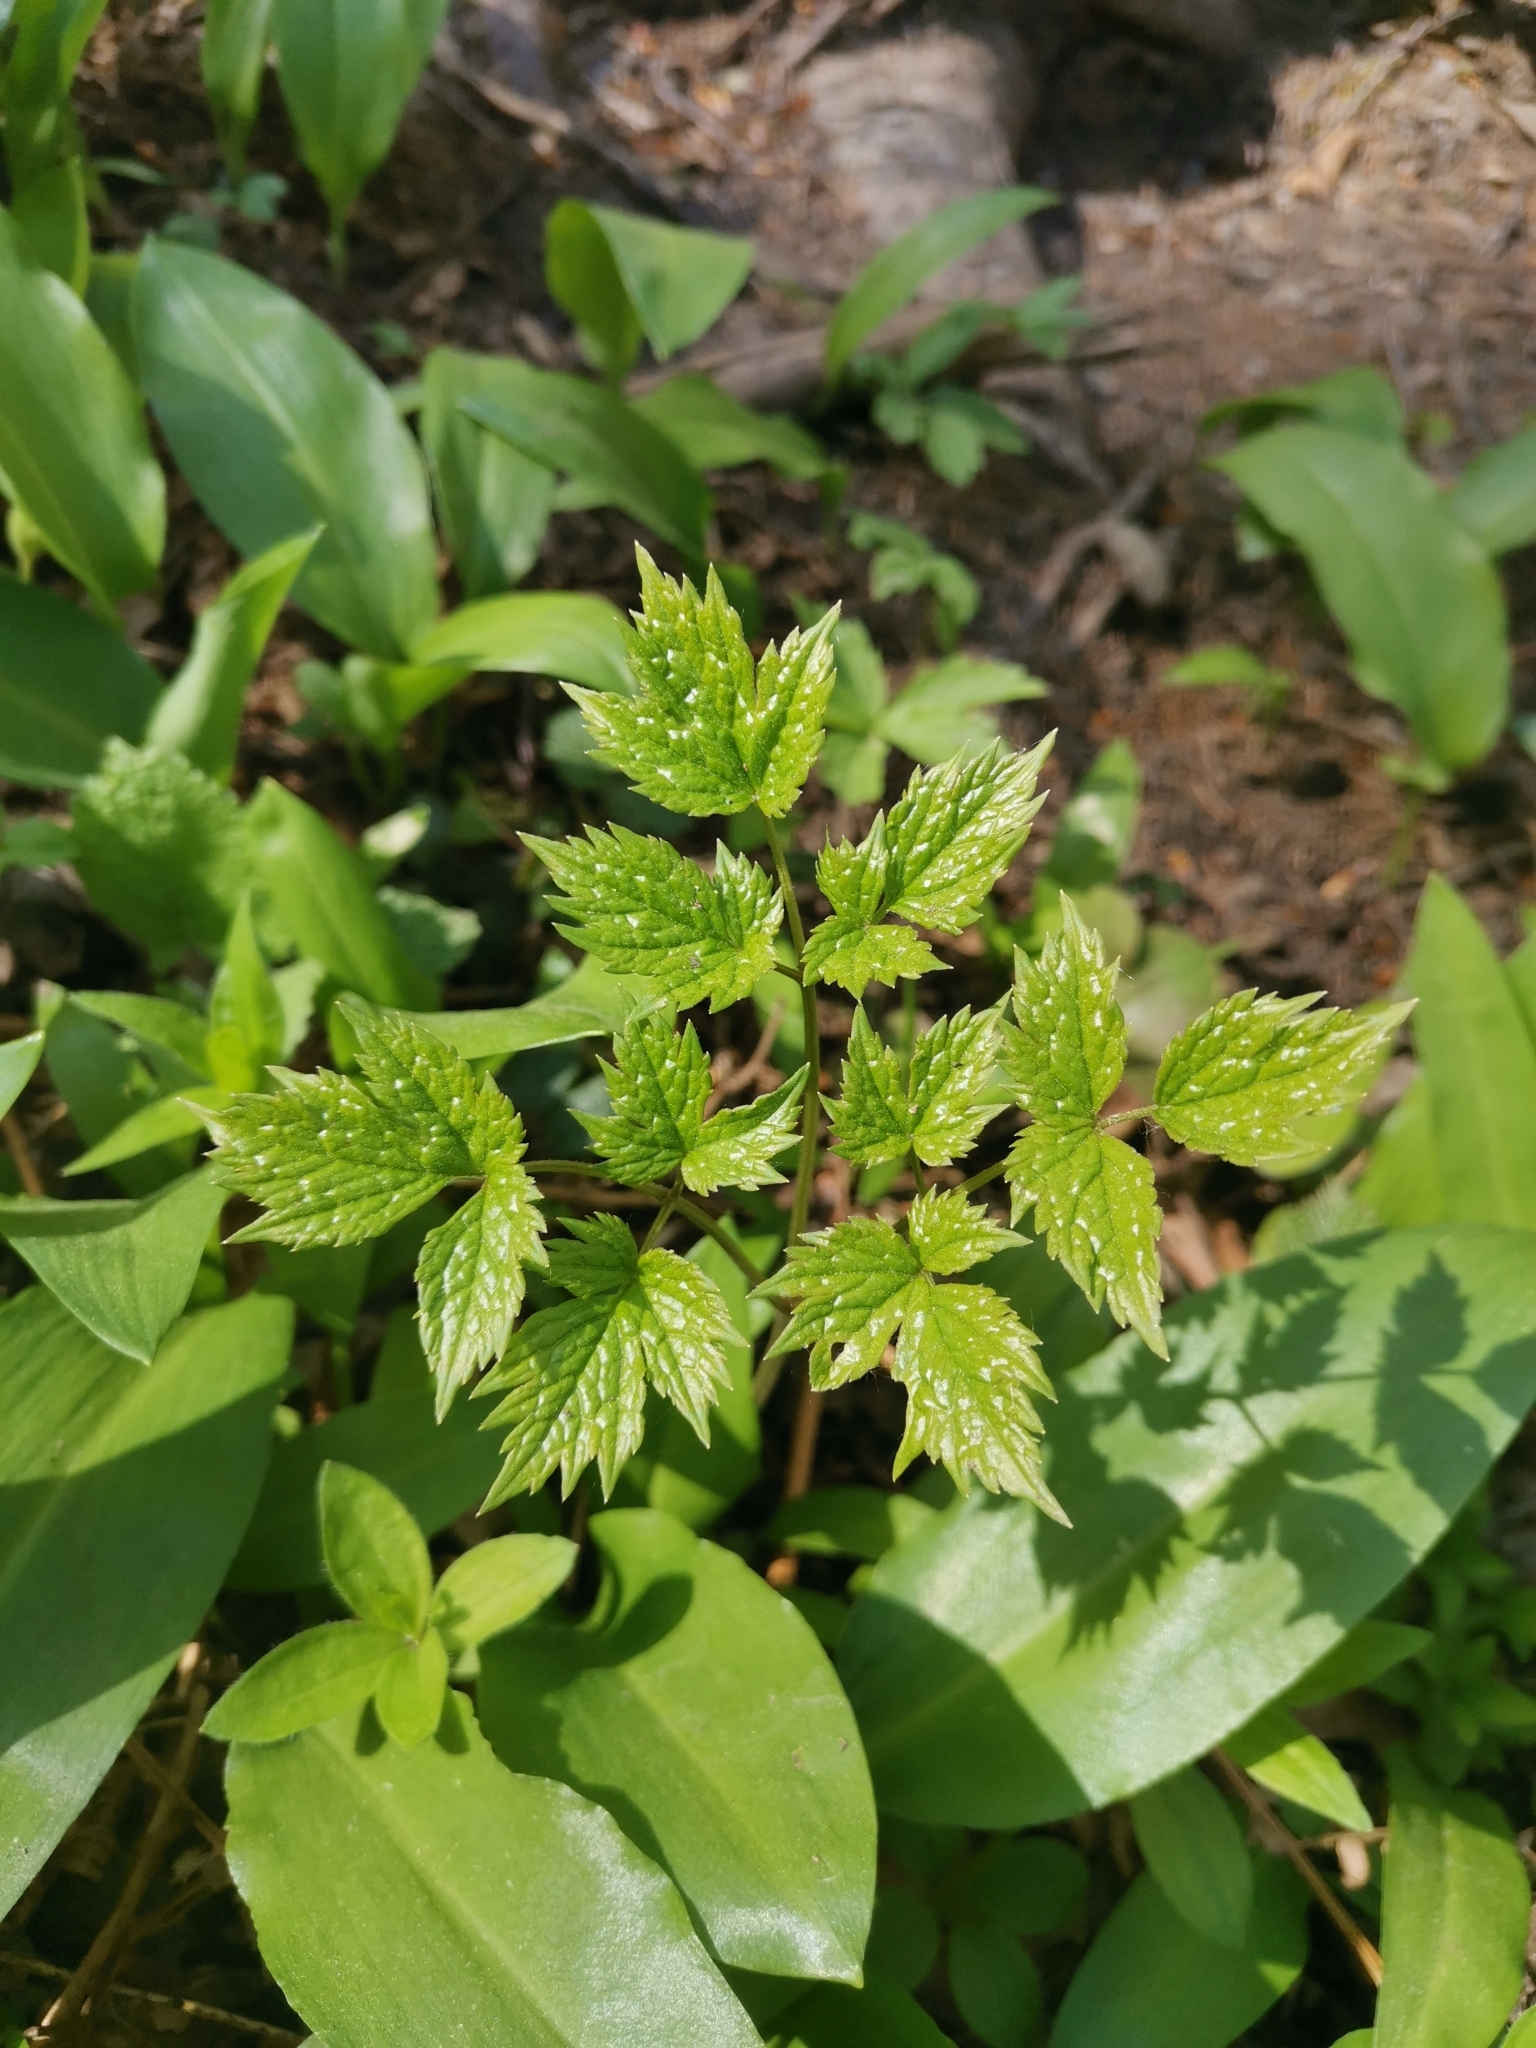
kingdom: Plantae
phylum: Tracheophyta
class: Magnoliopsida
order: Ranunculales
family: Ranunculaceae
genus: Actaea
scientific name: Actaea spicata
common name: Baneberry
